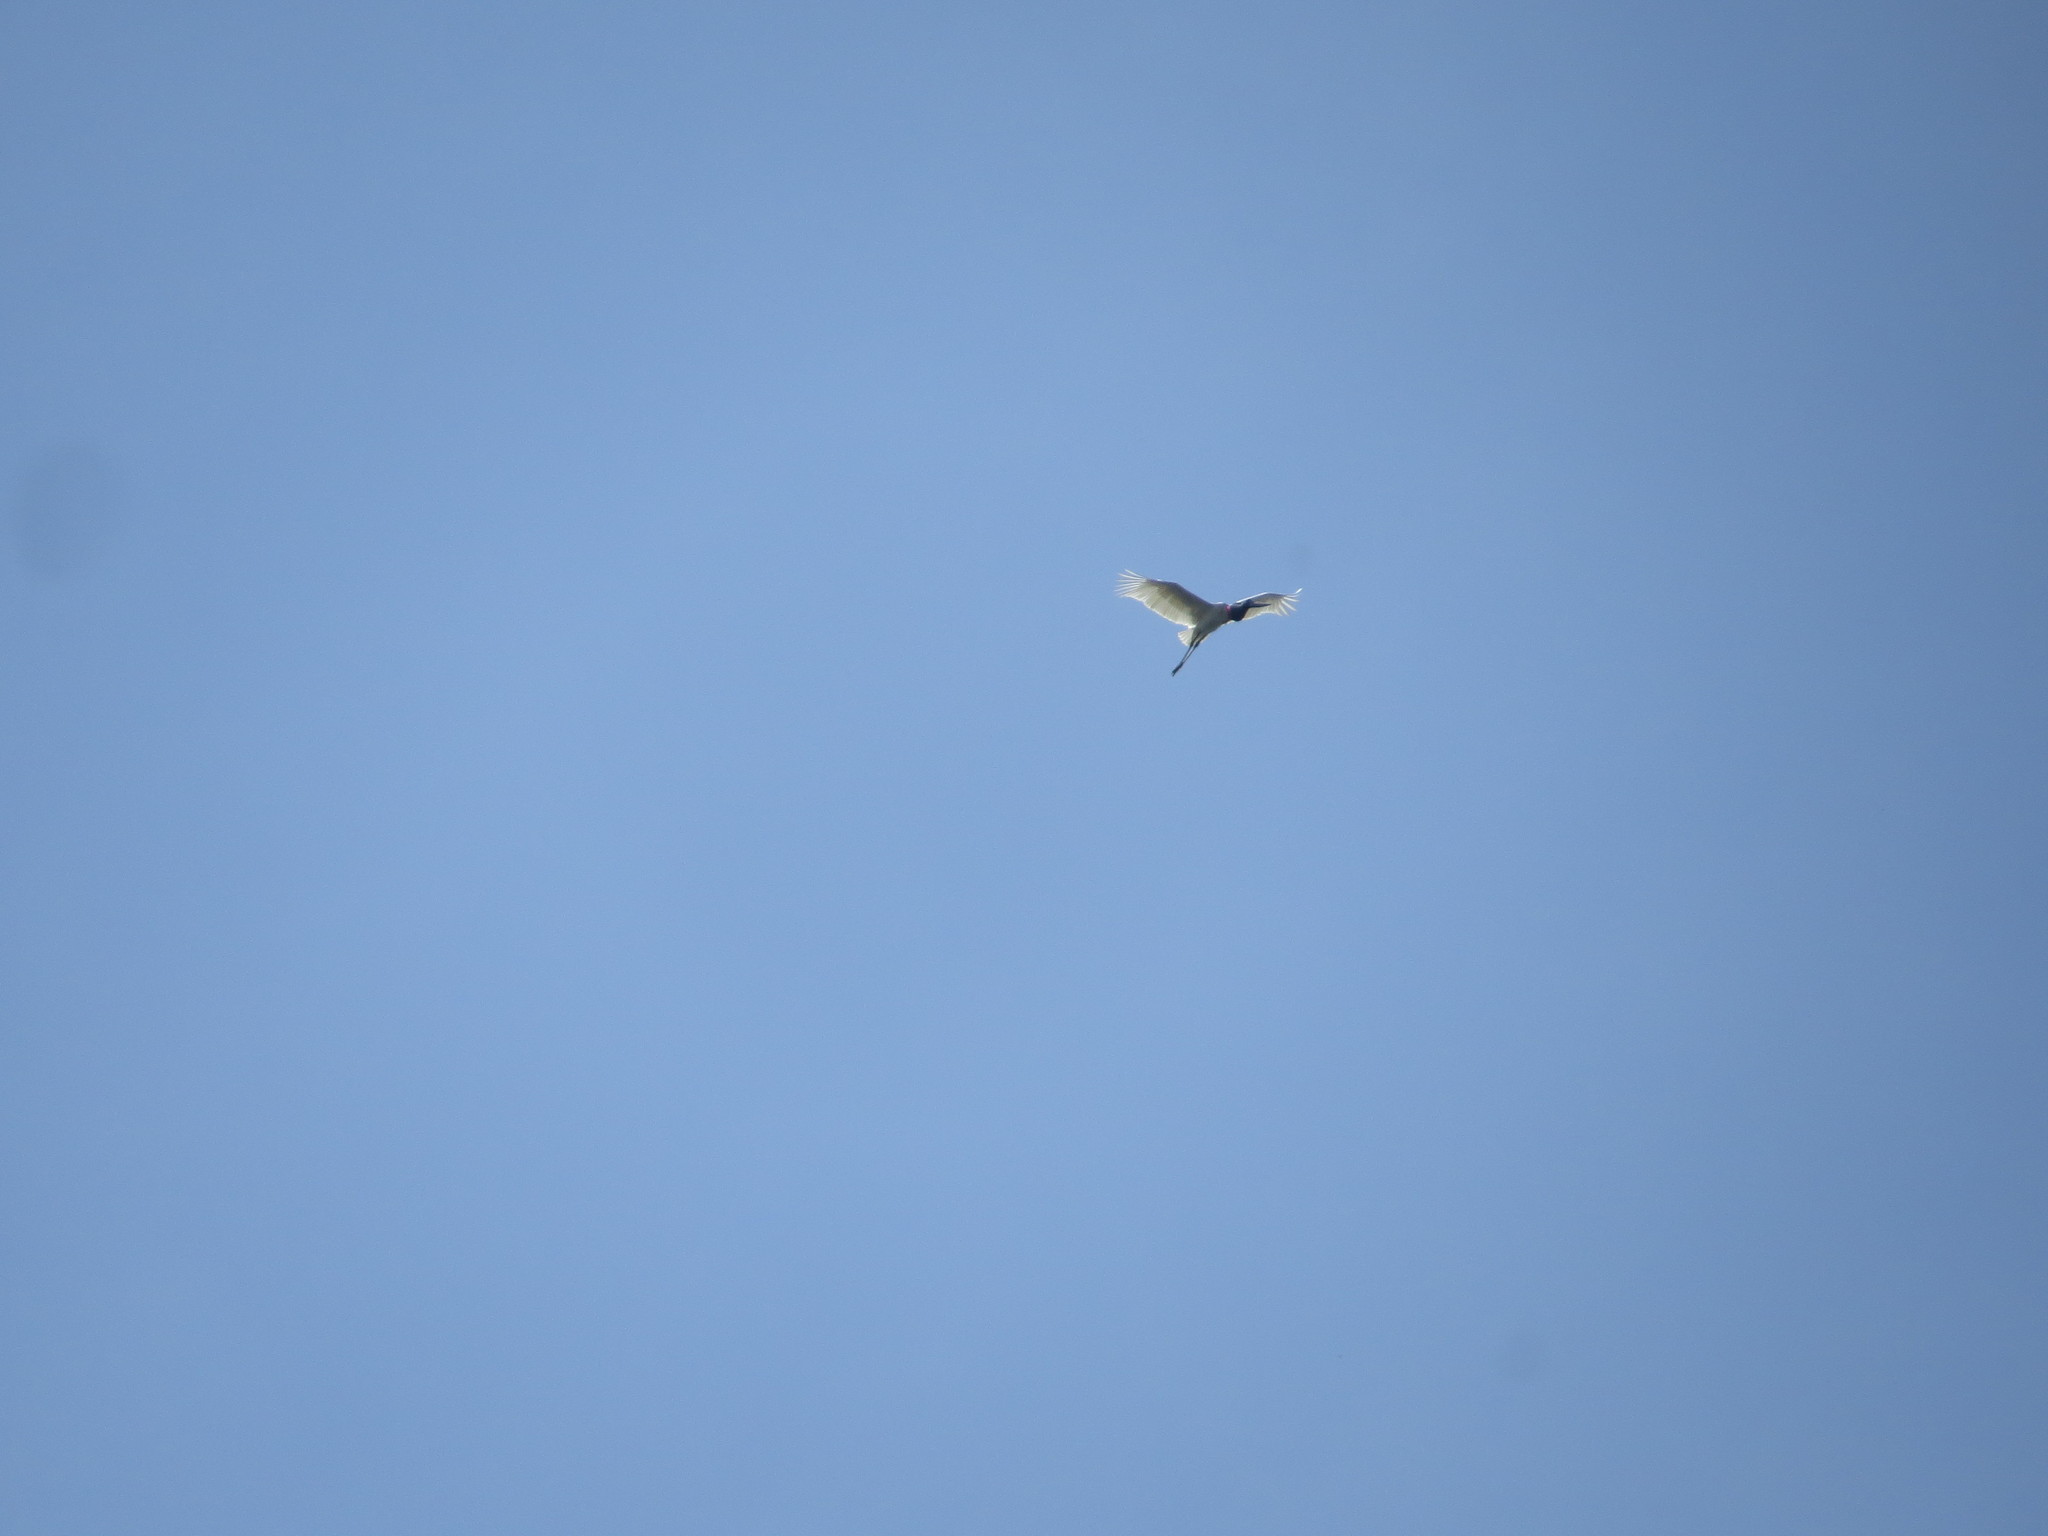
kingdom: Animalia
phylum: Chordata
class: Aves
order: Ciconiiformes
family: Ciconiidae
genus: Jabiru
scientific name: Jabiru mycteria
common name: Jabiru
